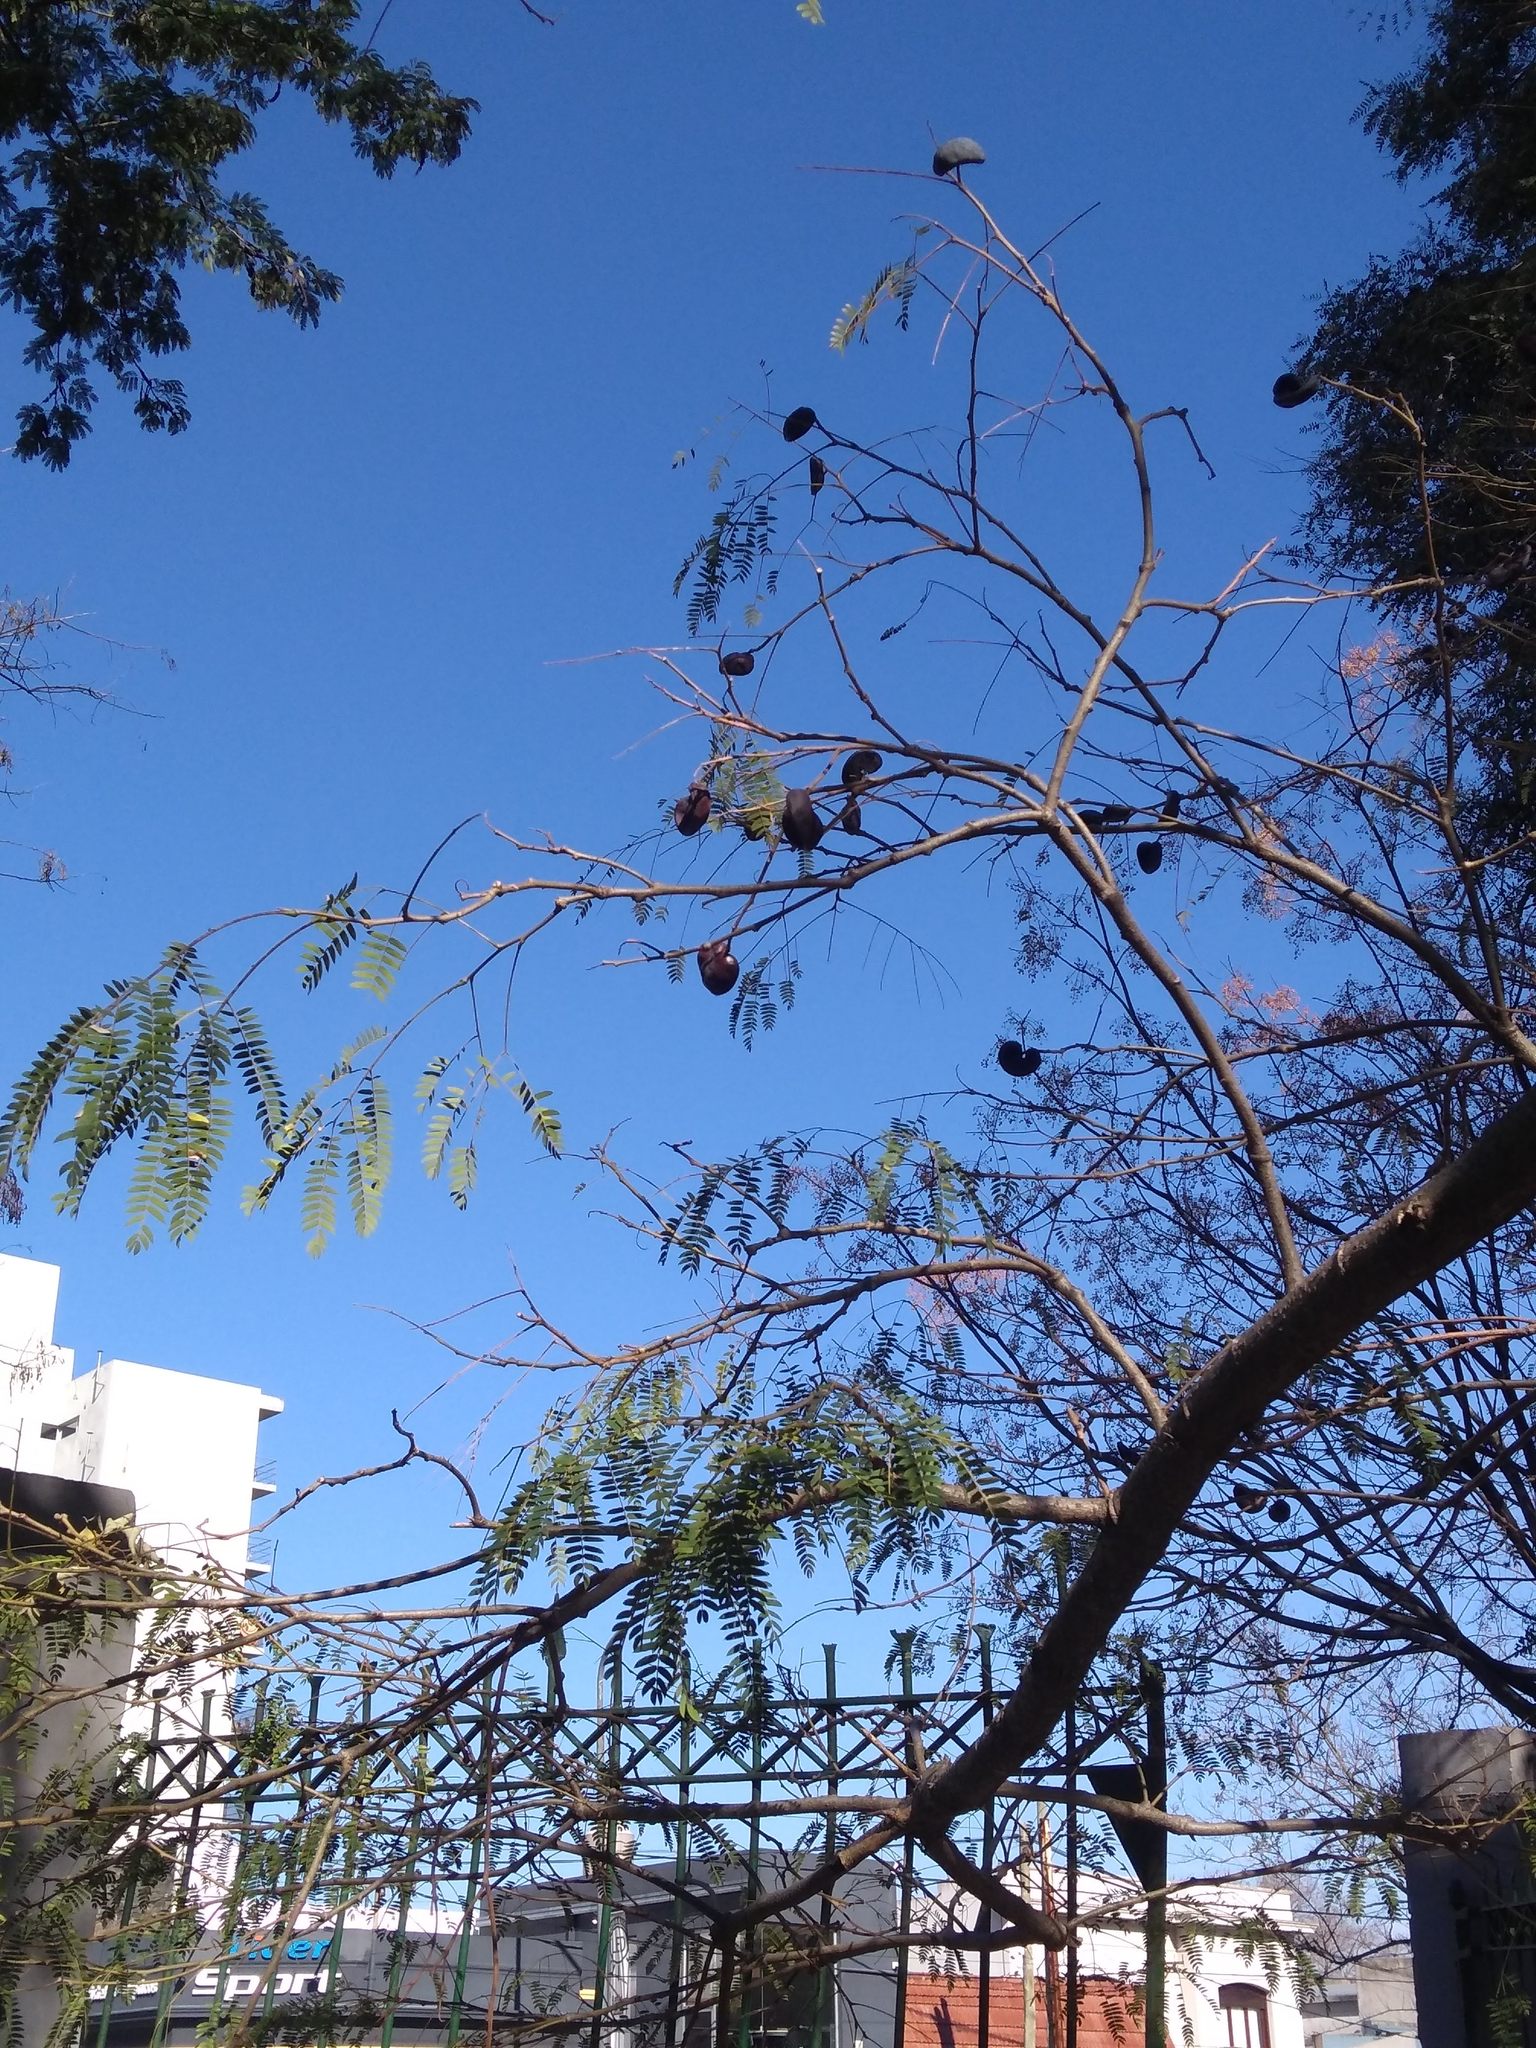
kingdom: Plantae
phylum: Tracheophyta
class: Magnoliopsida
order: Fabales
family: Fabaceae
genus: Enterolobium
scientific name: Enterolobium contortisiliquum
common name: Pacara earpod tree
